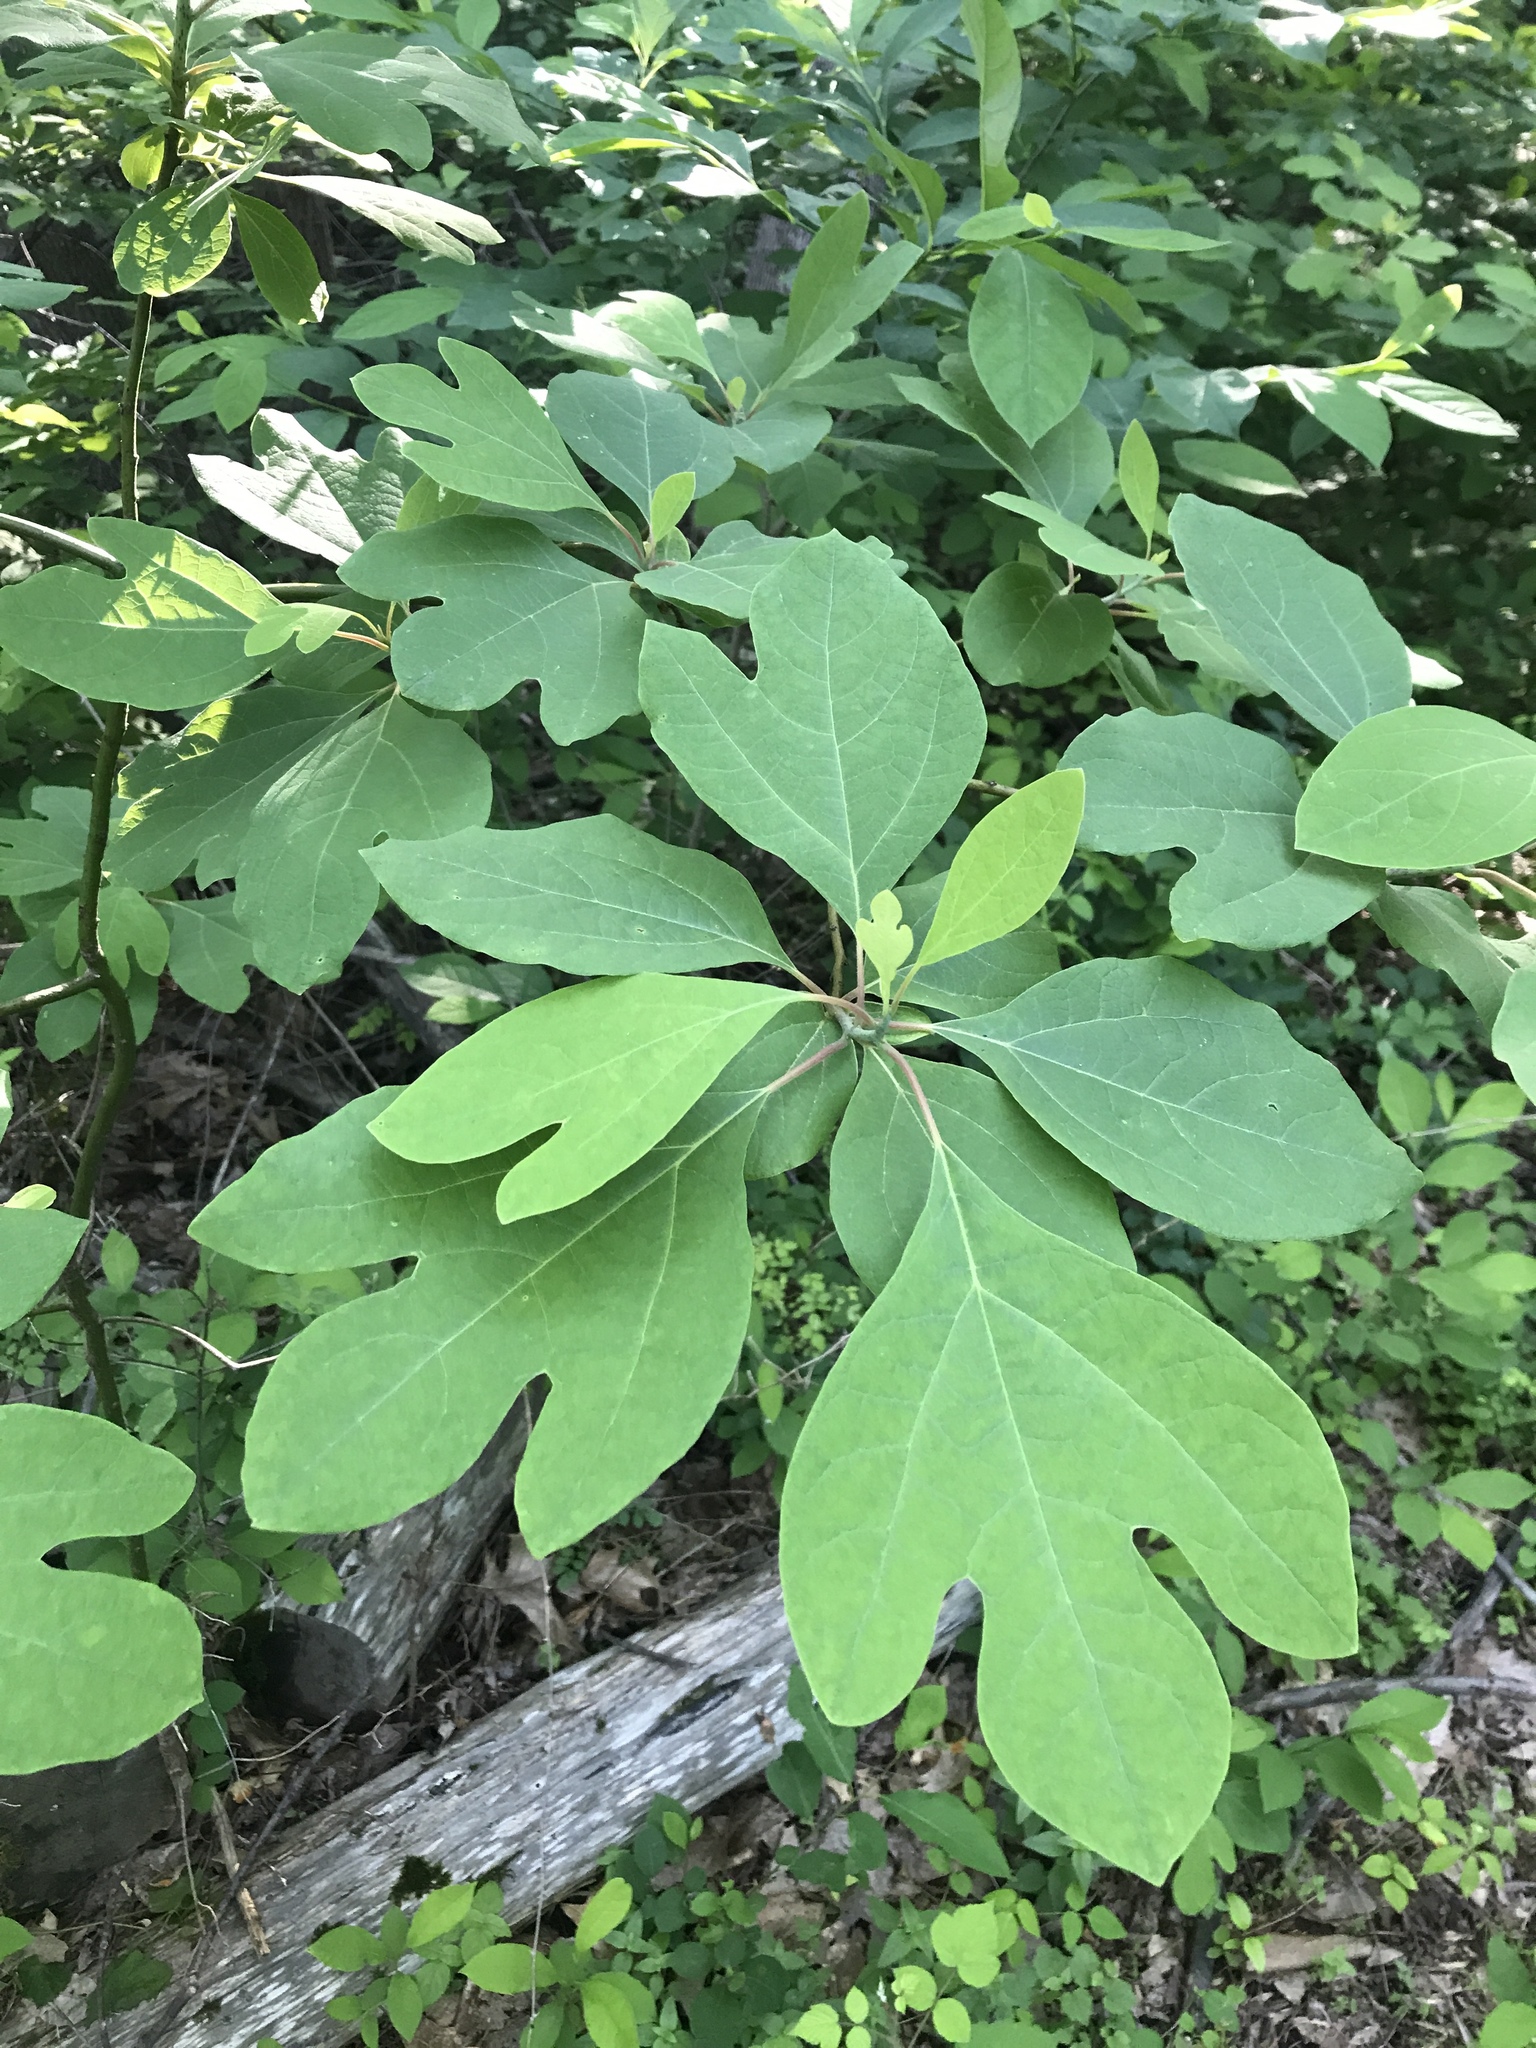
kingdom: Plantae
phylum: Tracheophyta
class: Magnoliopsida
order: Laurales
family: Lauraceae
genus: Sassafras
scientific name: Sassafras albidum
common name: Sassafras
